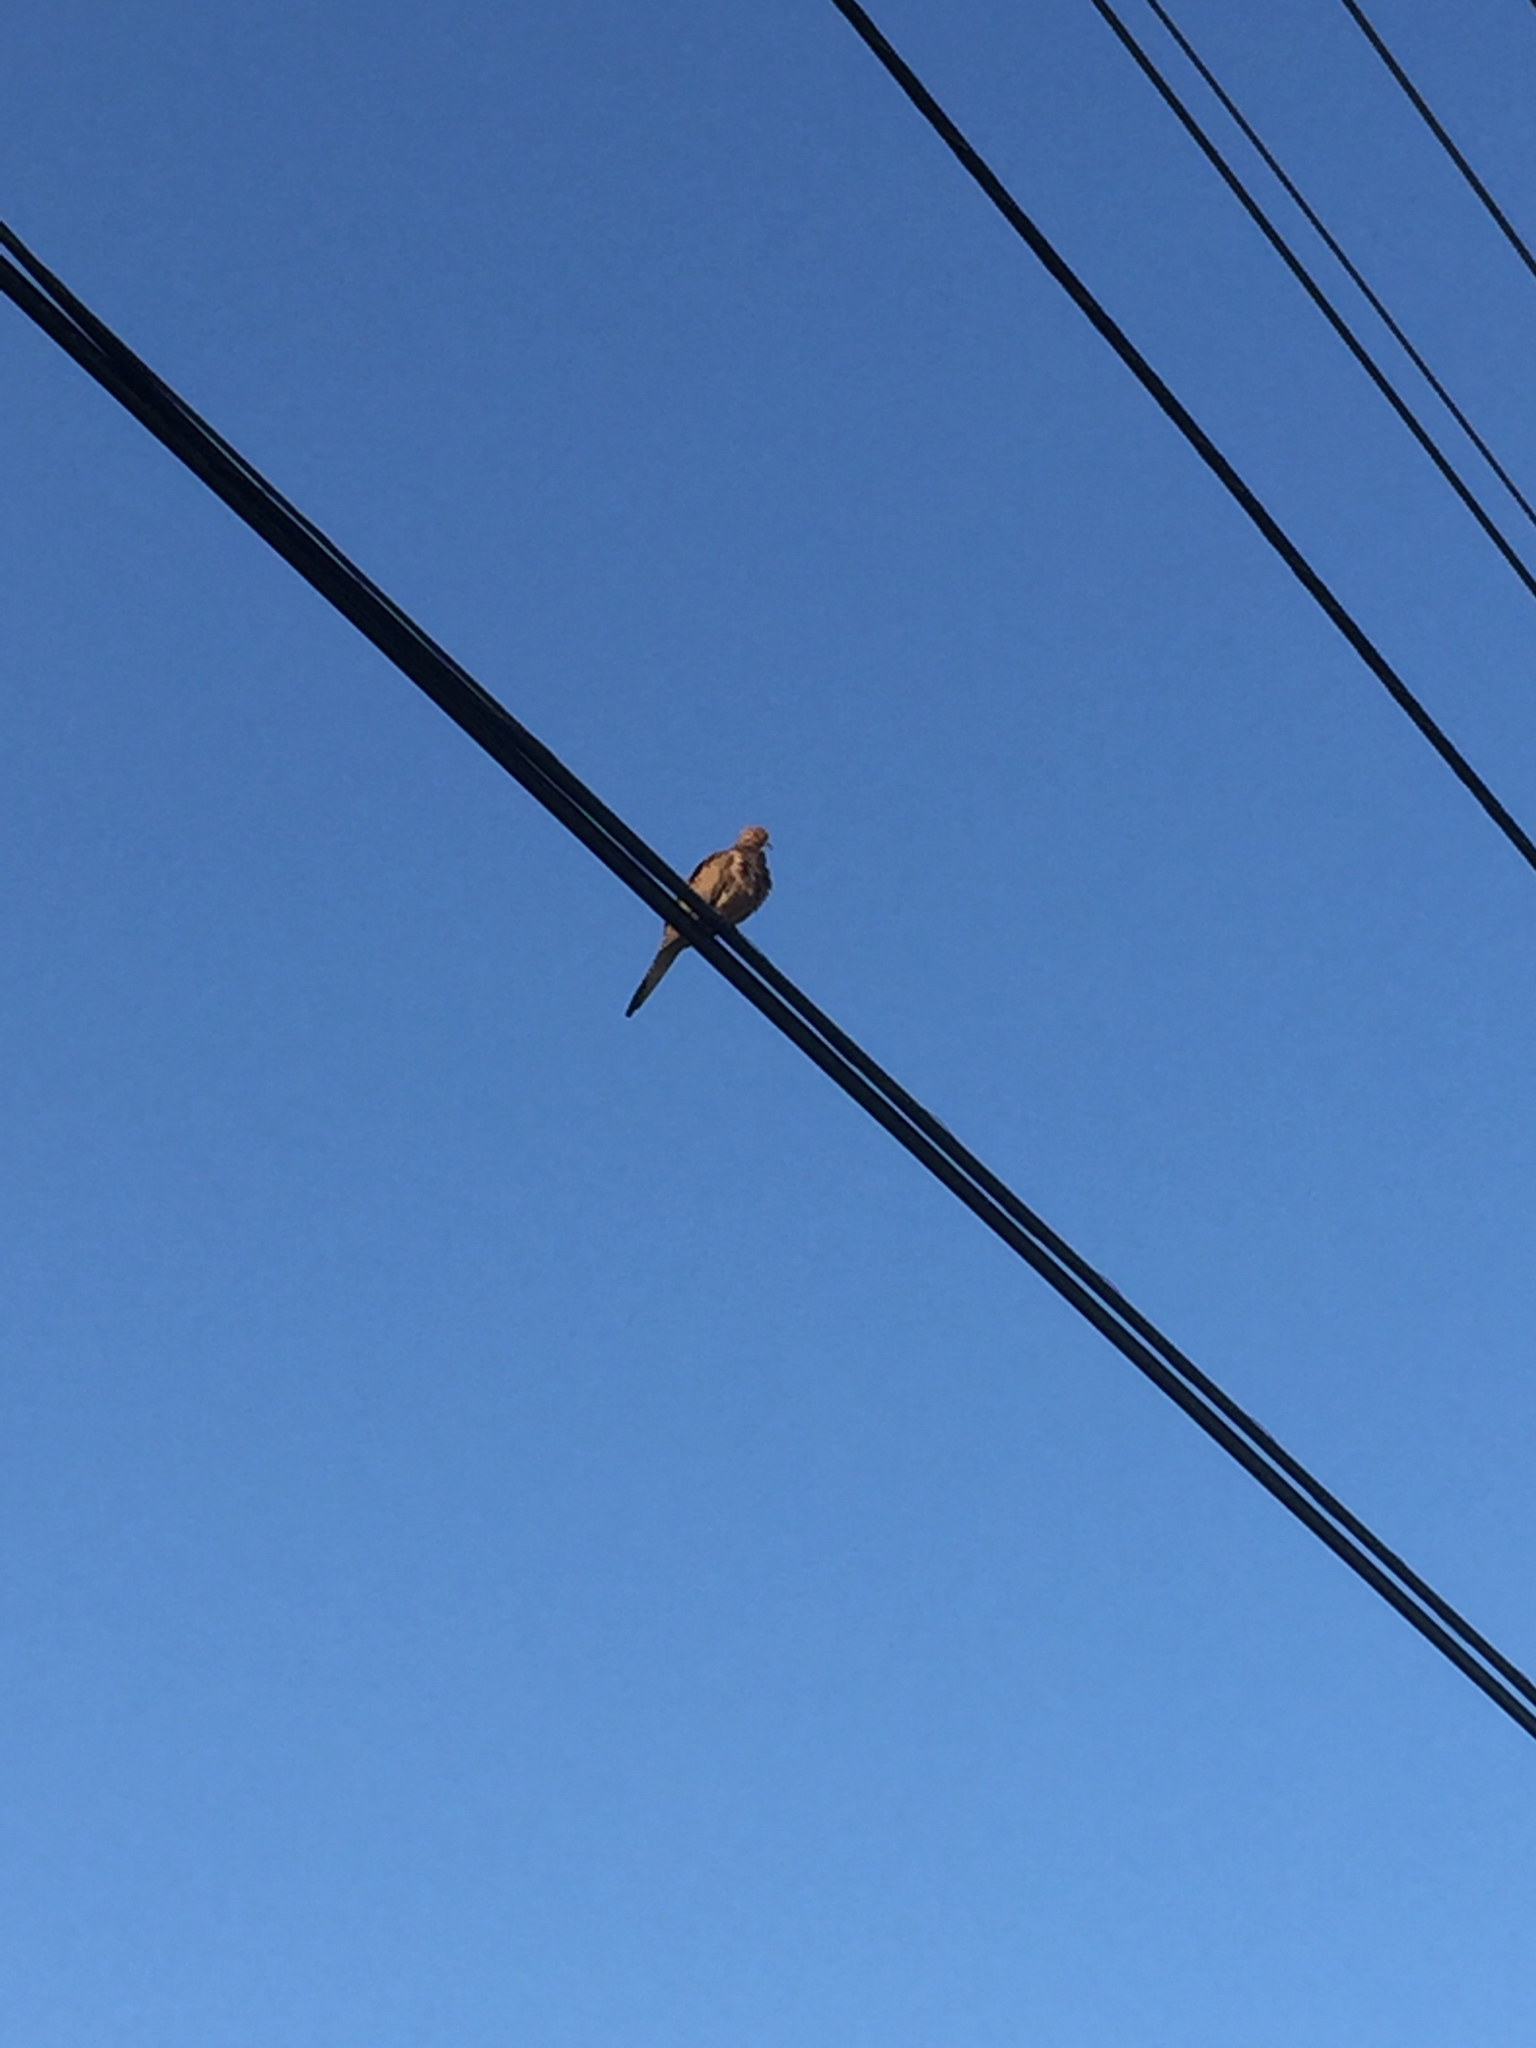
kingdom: Animalia
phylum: Chordata
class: Aves
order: Columbiformes
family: Columbidae
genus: Zenaida
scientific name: Zenaida macroura
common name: Mourning dove
